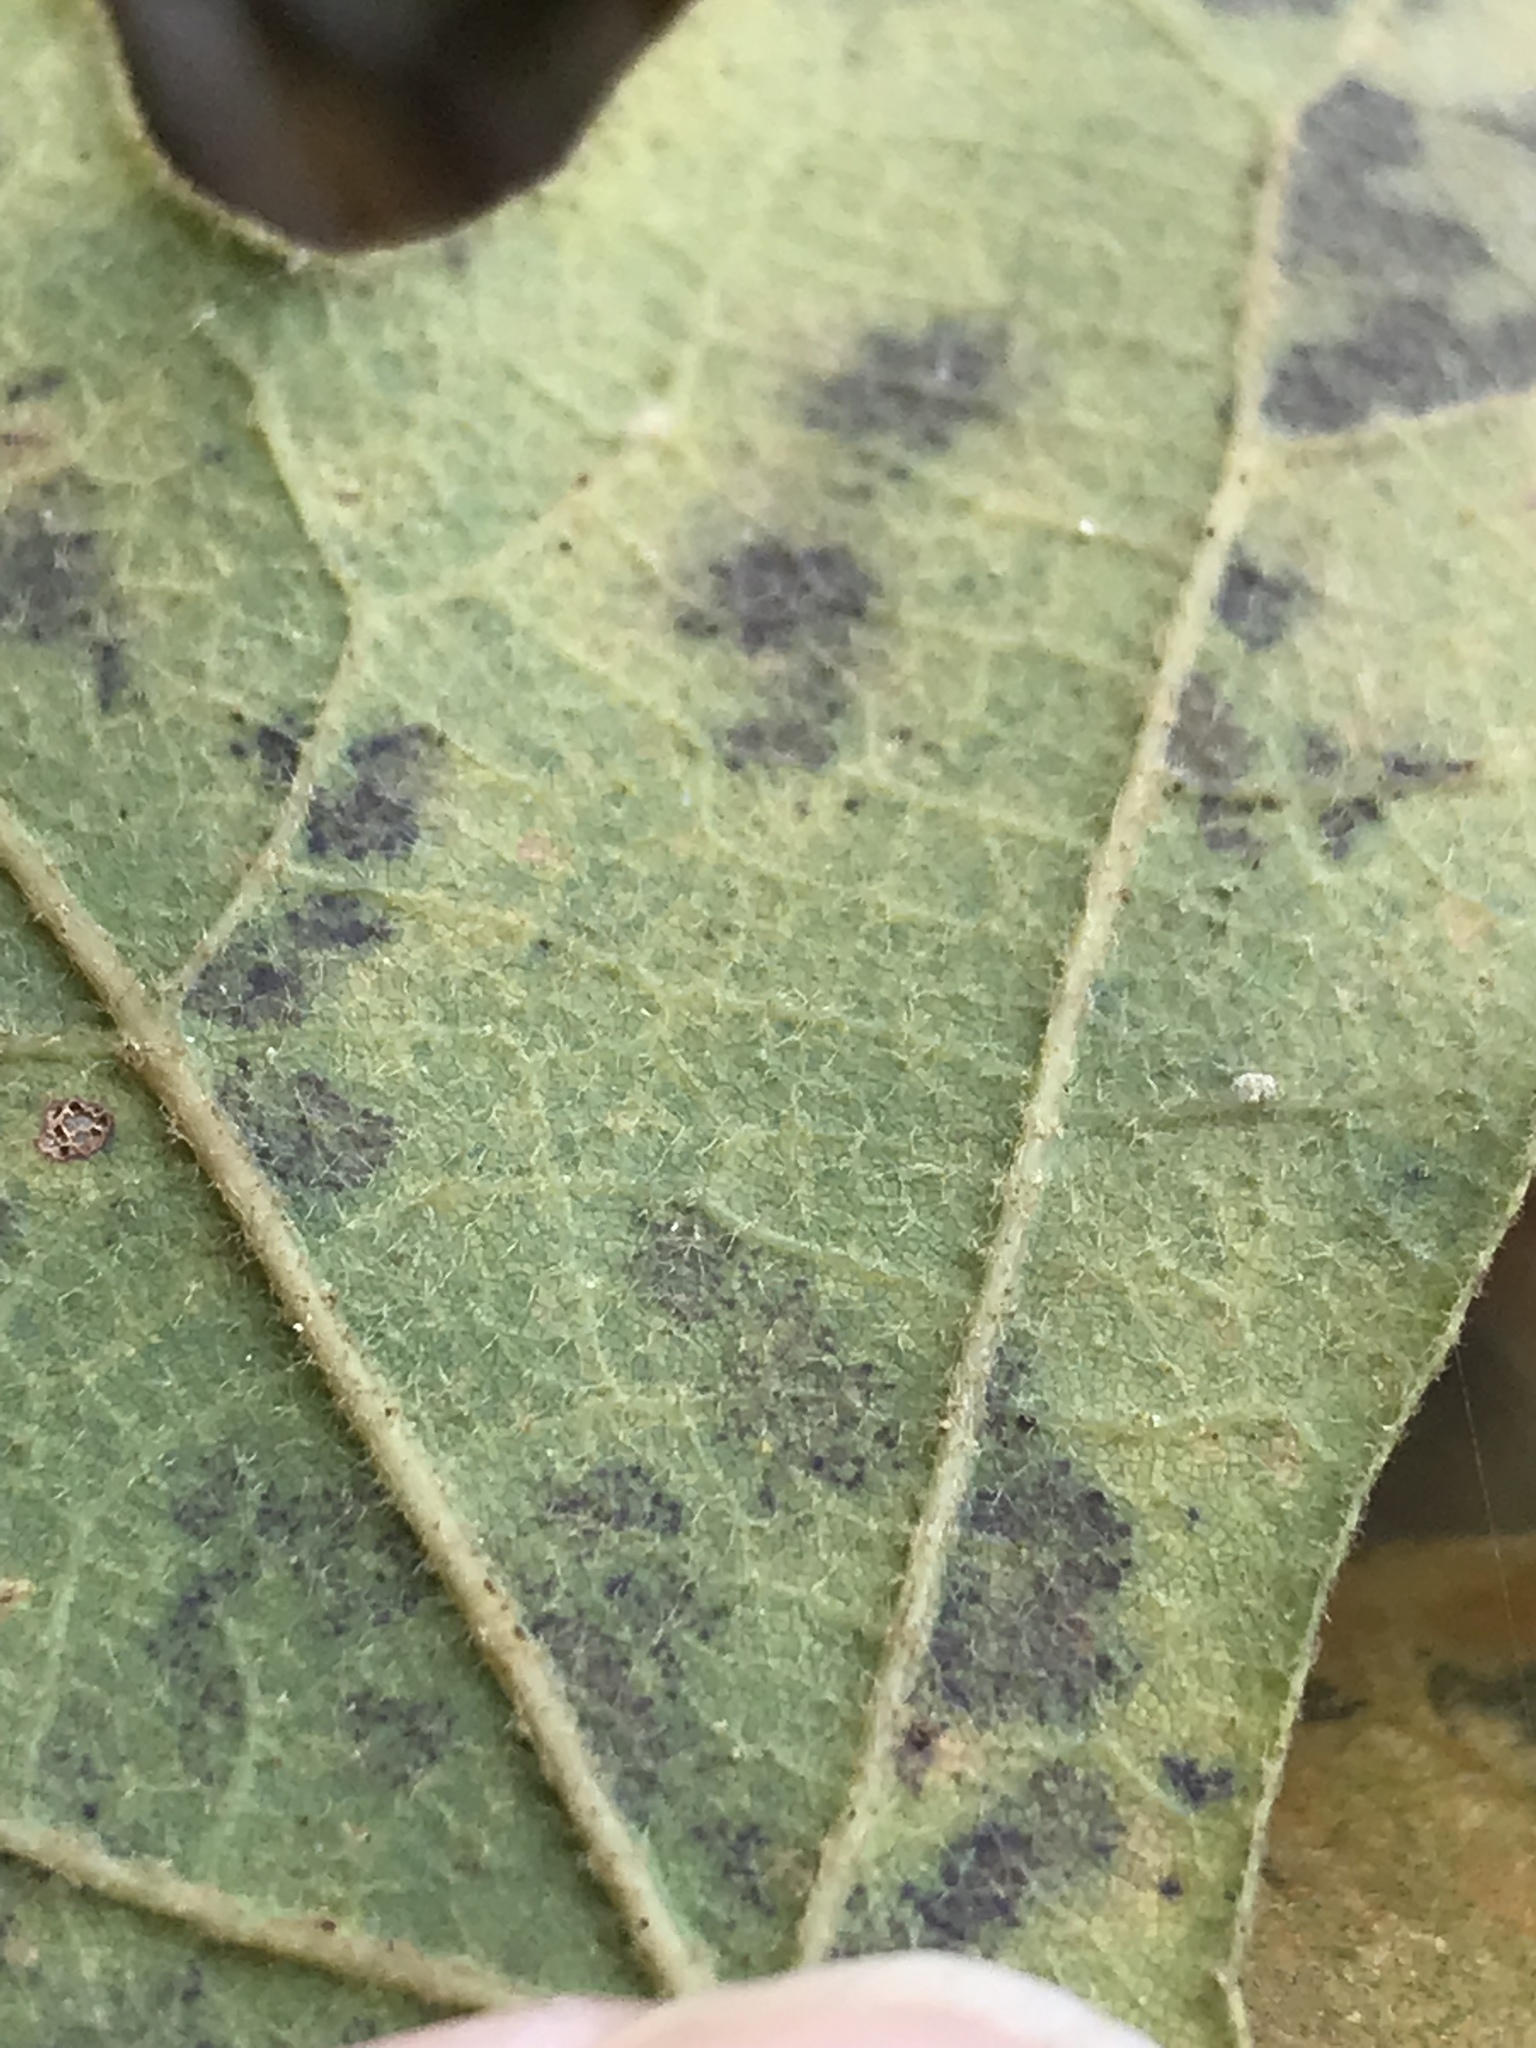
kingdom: Plantae
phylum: Tracheophyta
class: Magnoliopsida
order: Fagales
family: Fagaceae
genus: Quercus
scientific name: Quercus stellata
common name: Post oak
